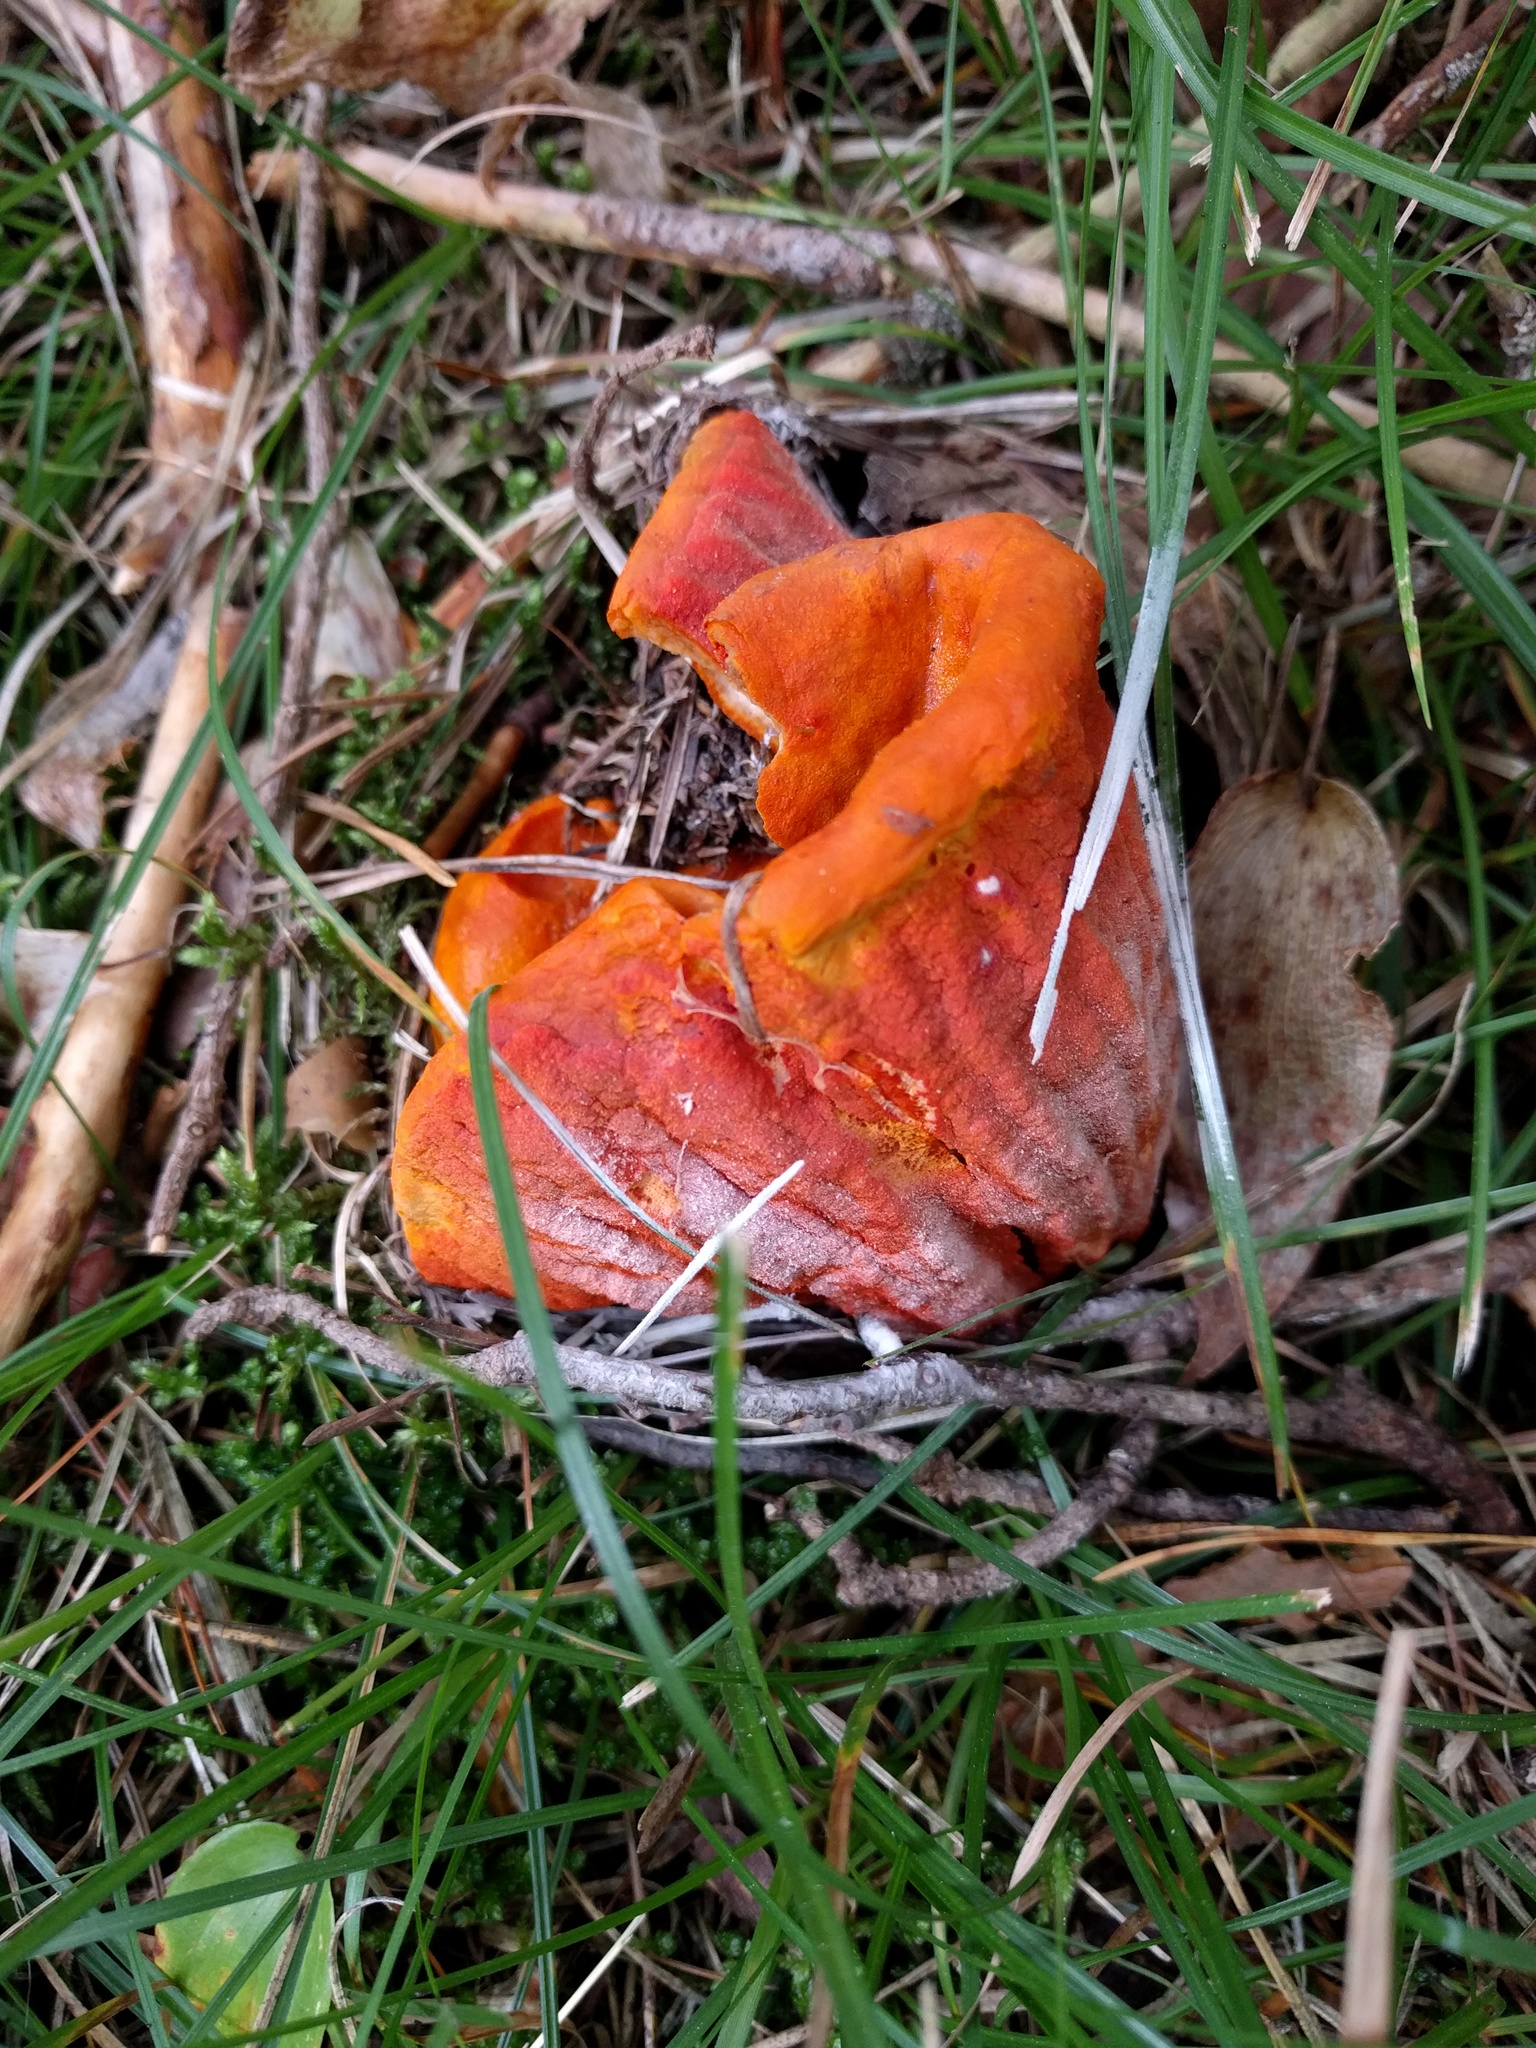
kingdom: Fungi
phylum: Ascomycota
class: Sordariomycetes
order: Hypocreales
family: Hypocreaceae
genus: Hypomyces
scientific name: Hypomyces lactifluorum
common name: Lobster mushroom
